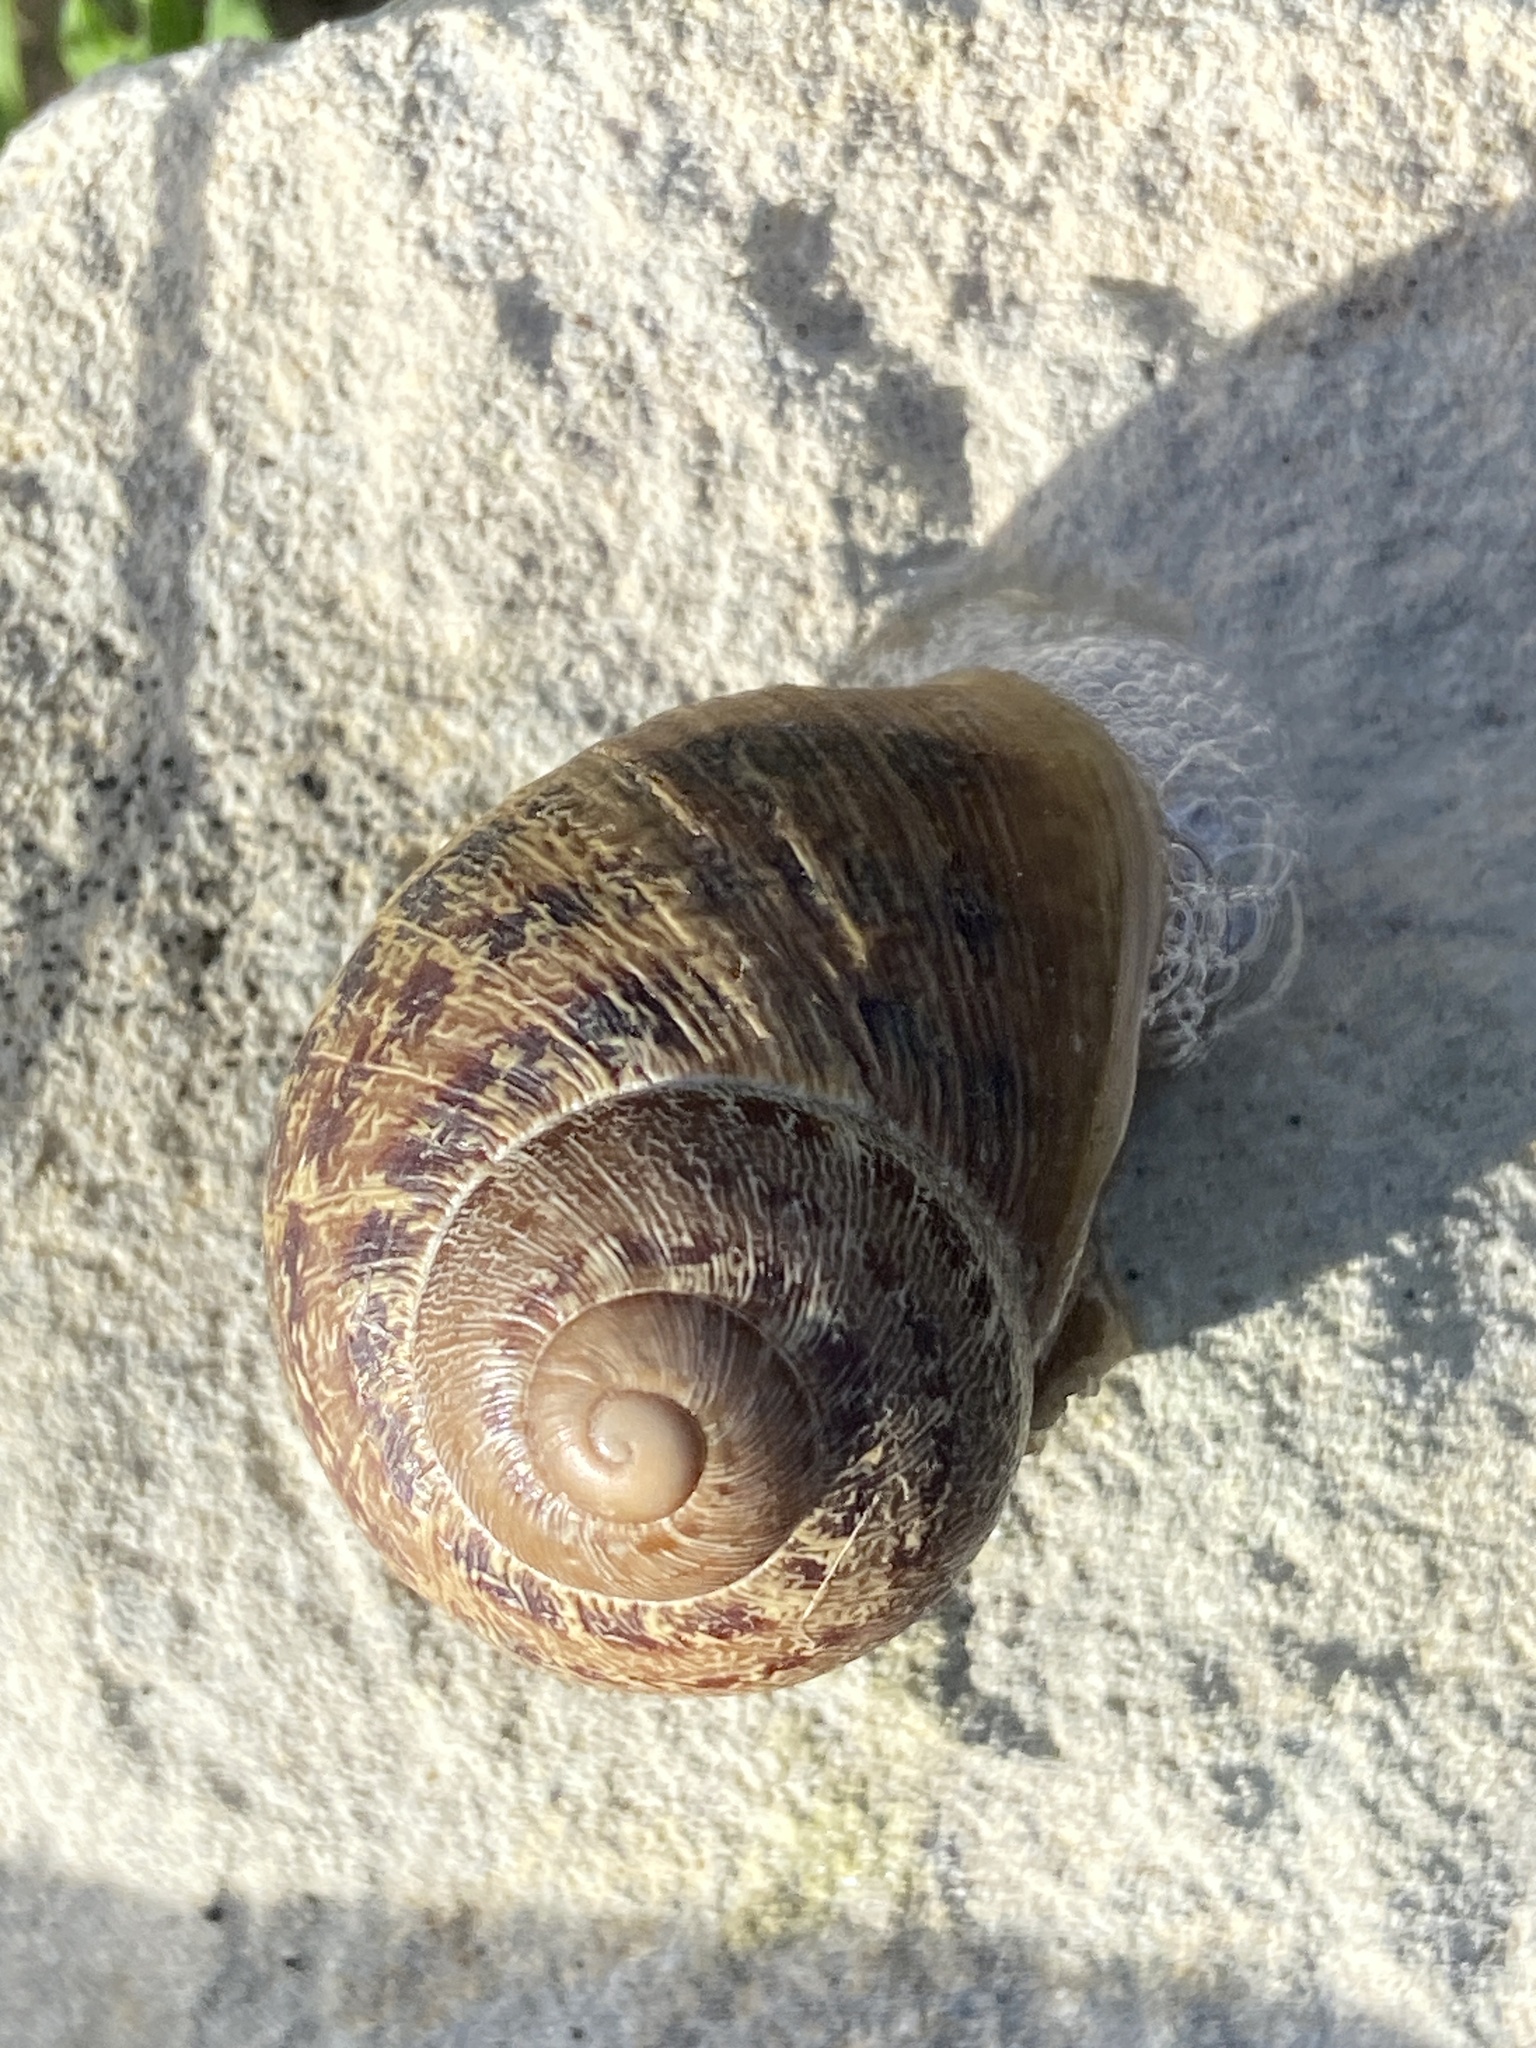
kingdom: Animalia
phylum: Mollusca
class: Gastropoda
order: Stylommatophora
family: Helicidae
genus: Cornu
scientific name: Cornu aspersum
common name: Brown garden snail
